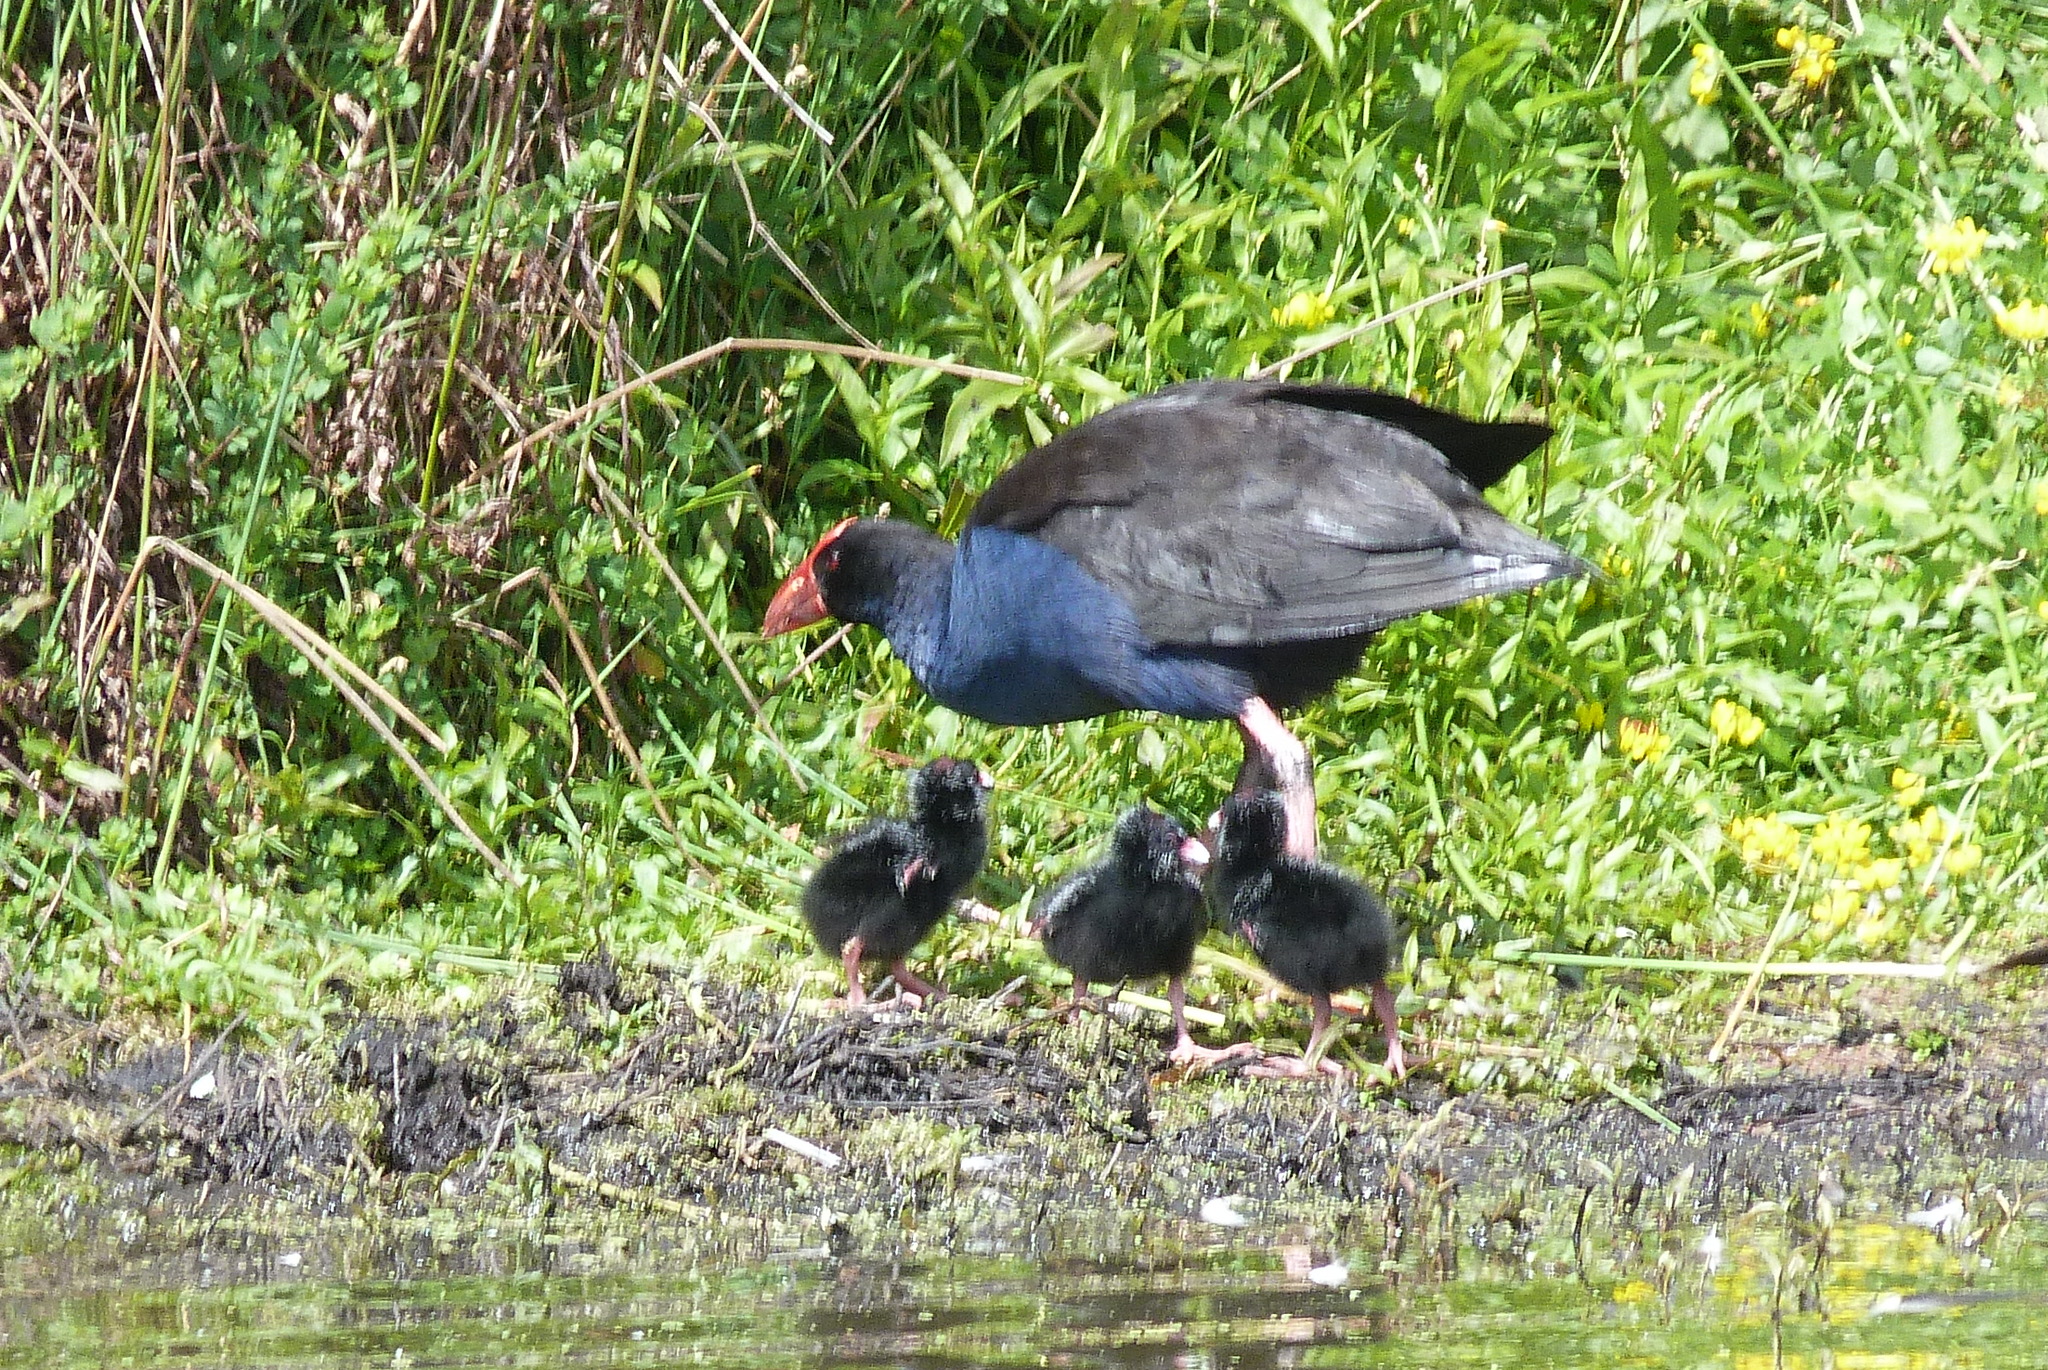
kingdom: Animalia
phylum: Chordata
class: Aves
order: Gruiformes
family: Rallidae
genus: Porphyrio
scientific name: Porphyrio melanotus
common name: Australasian swamphen
